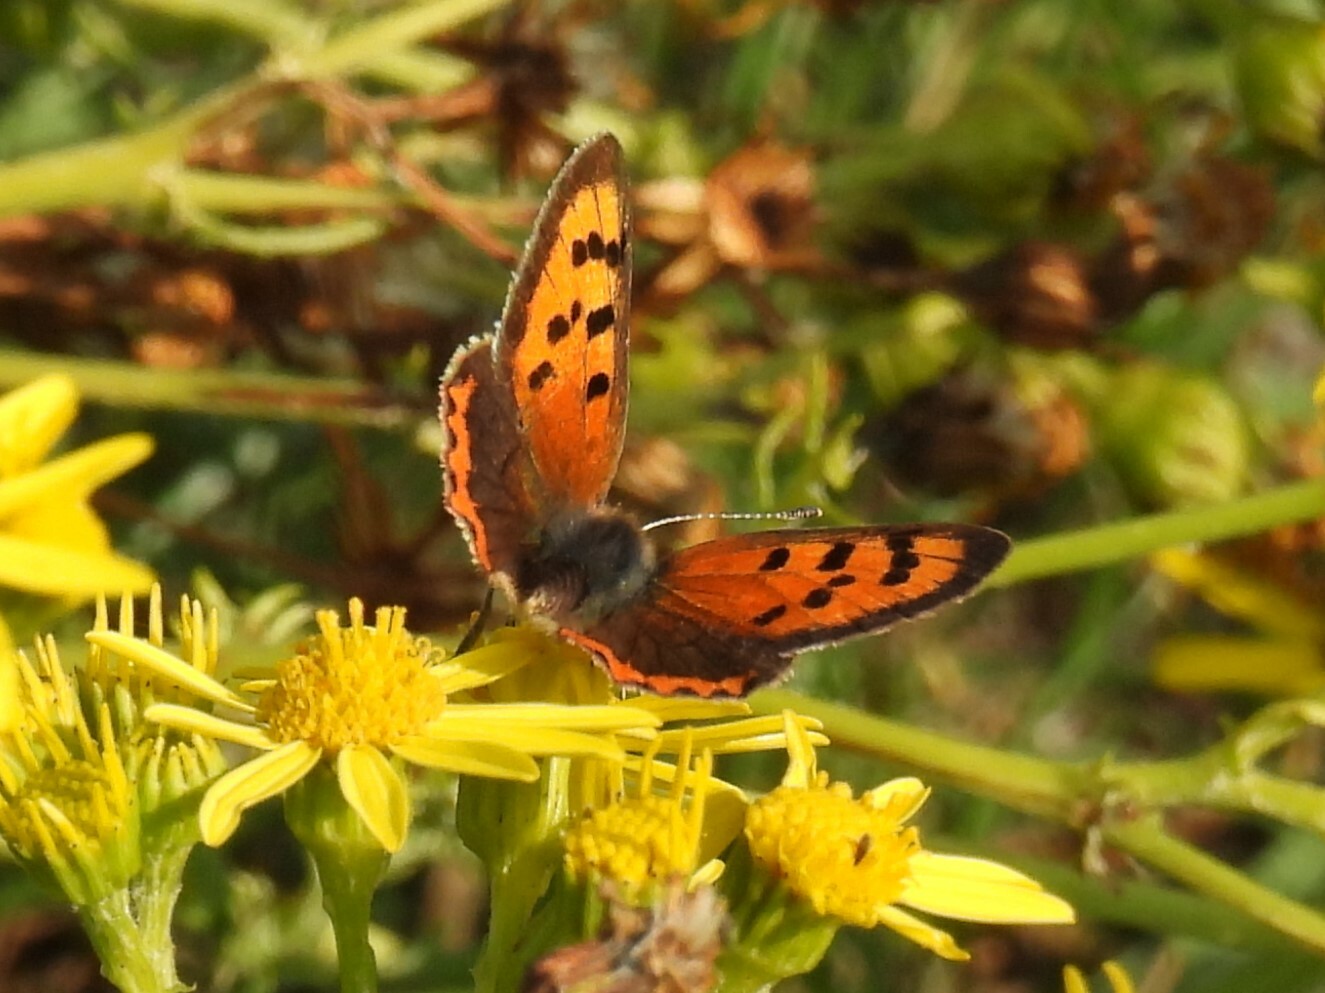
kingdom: Animalia
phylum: Arthropoda
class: Insecta
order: Lepidoptera
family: Lycaenidae
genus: Lycaena
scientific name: Lycaena phlaeas
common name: Small copper
